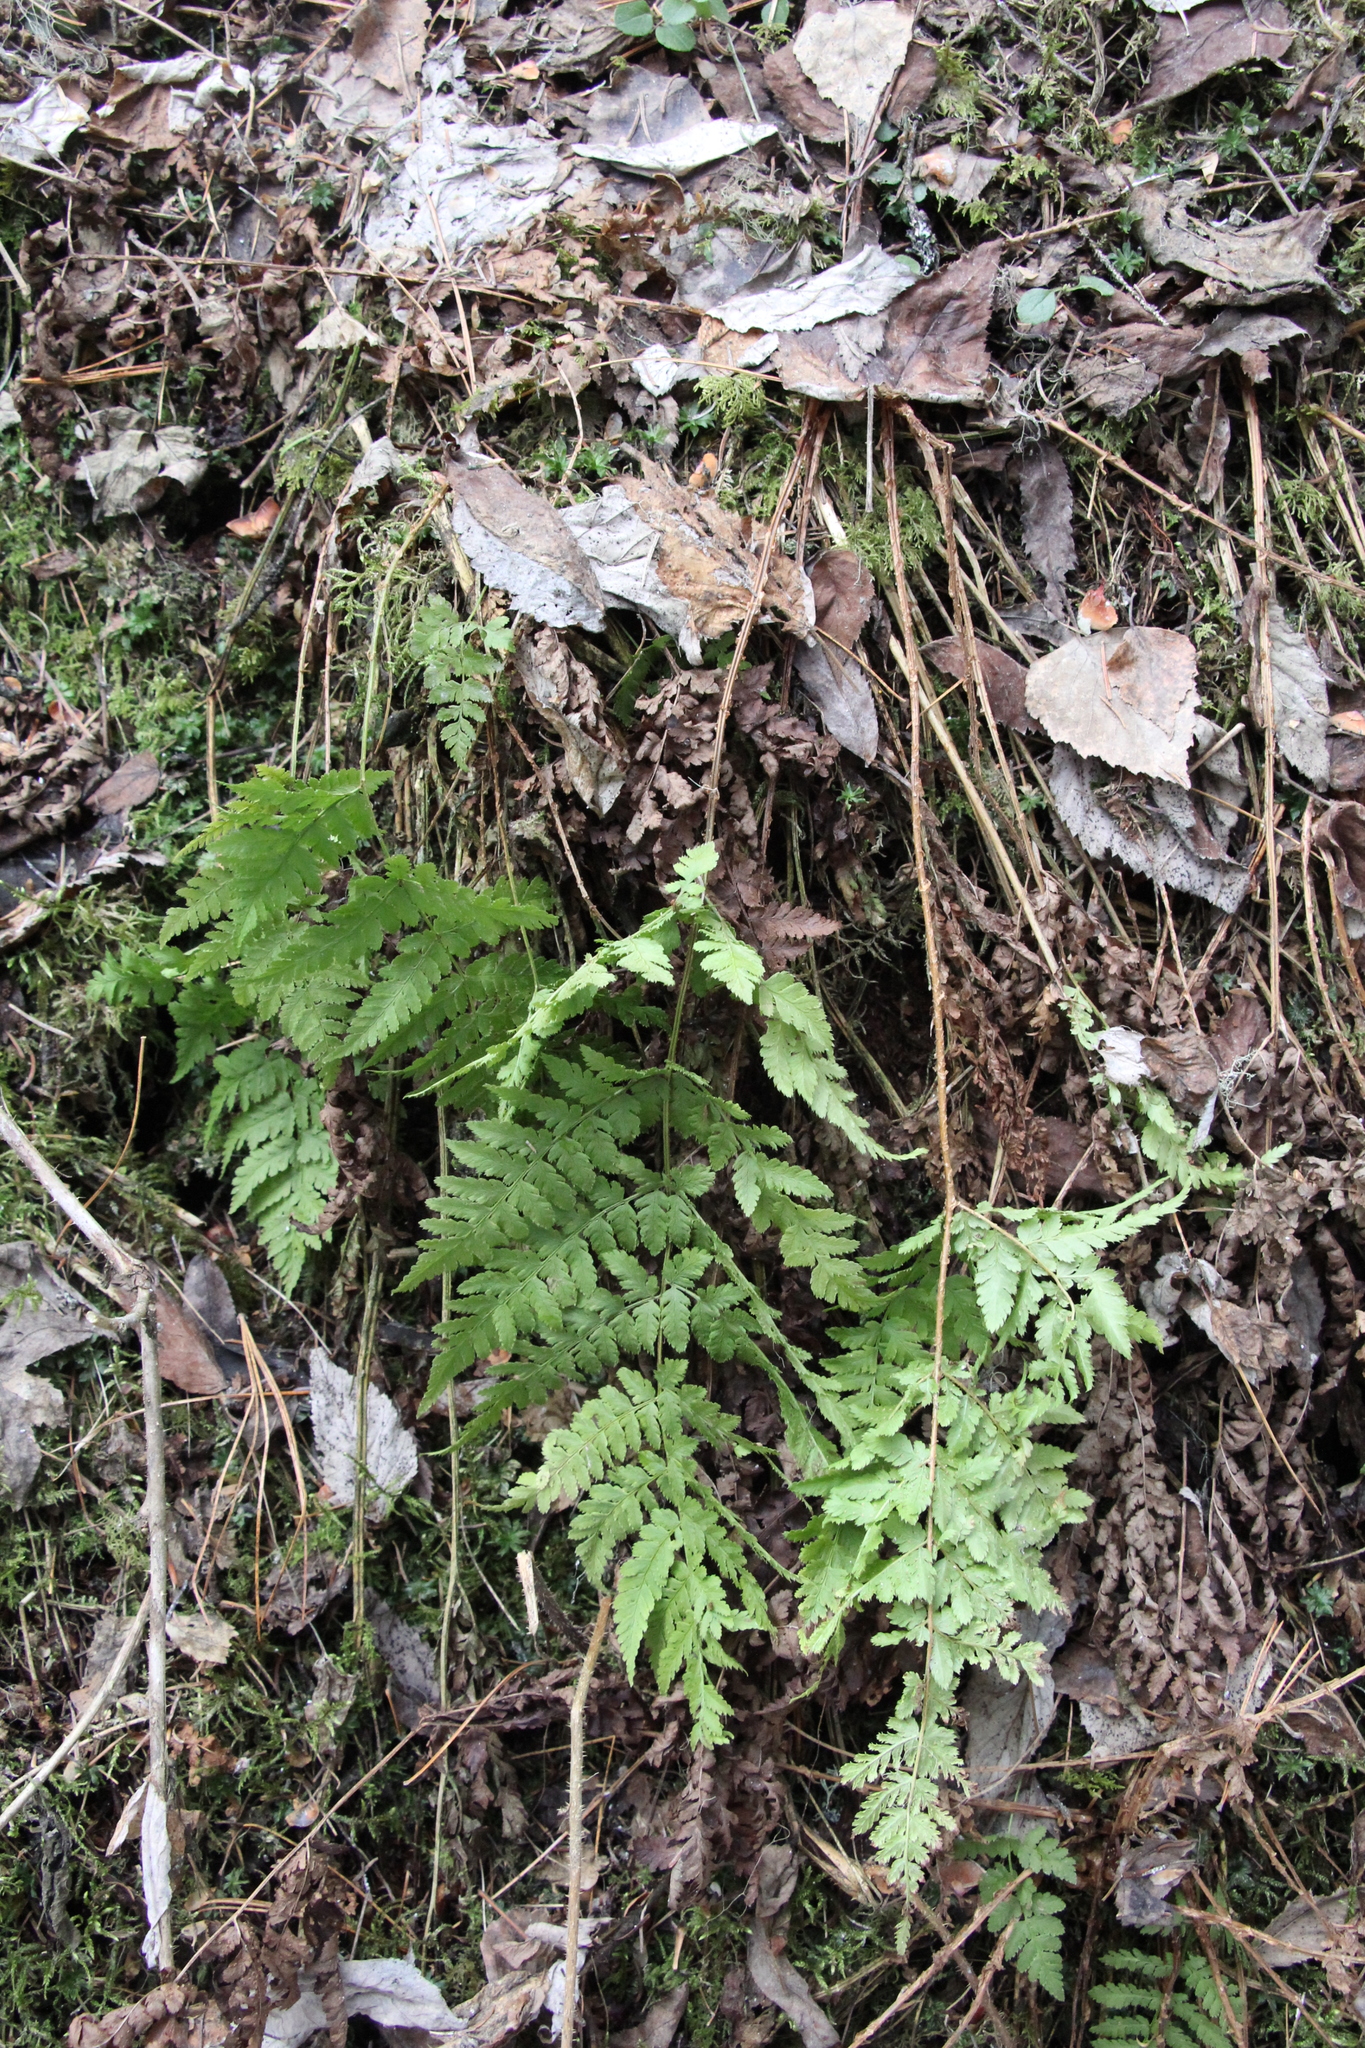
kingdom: Plantae
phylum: Tracheophyta
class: Polypodiopsida
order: Polypodiales
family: Dryopteridaceae
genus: Dryopteris
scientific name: Dryopteris carthusiana
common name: Narrow buckler-fern
